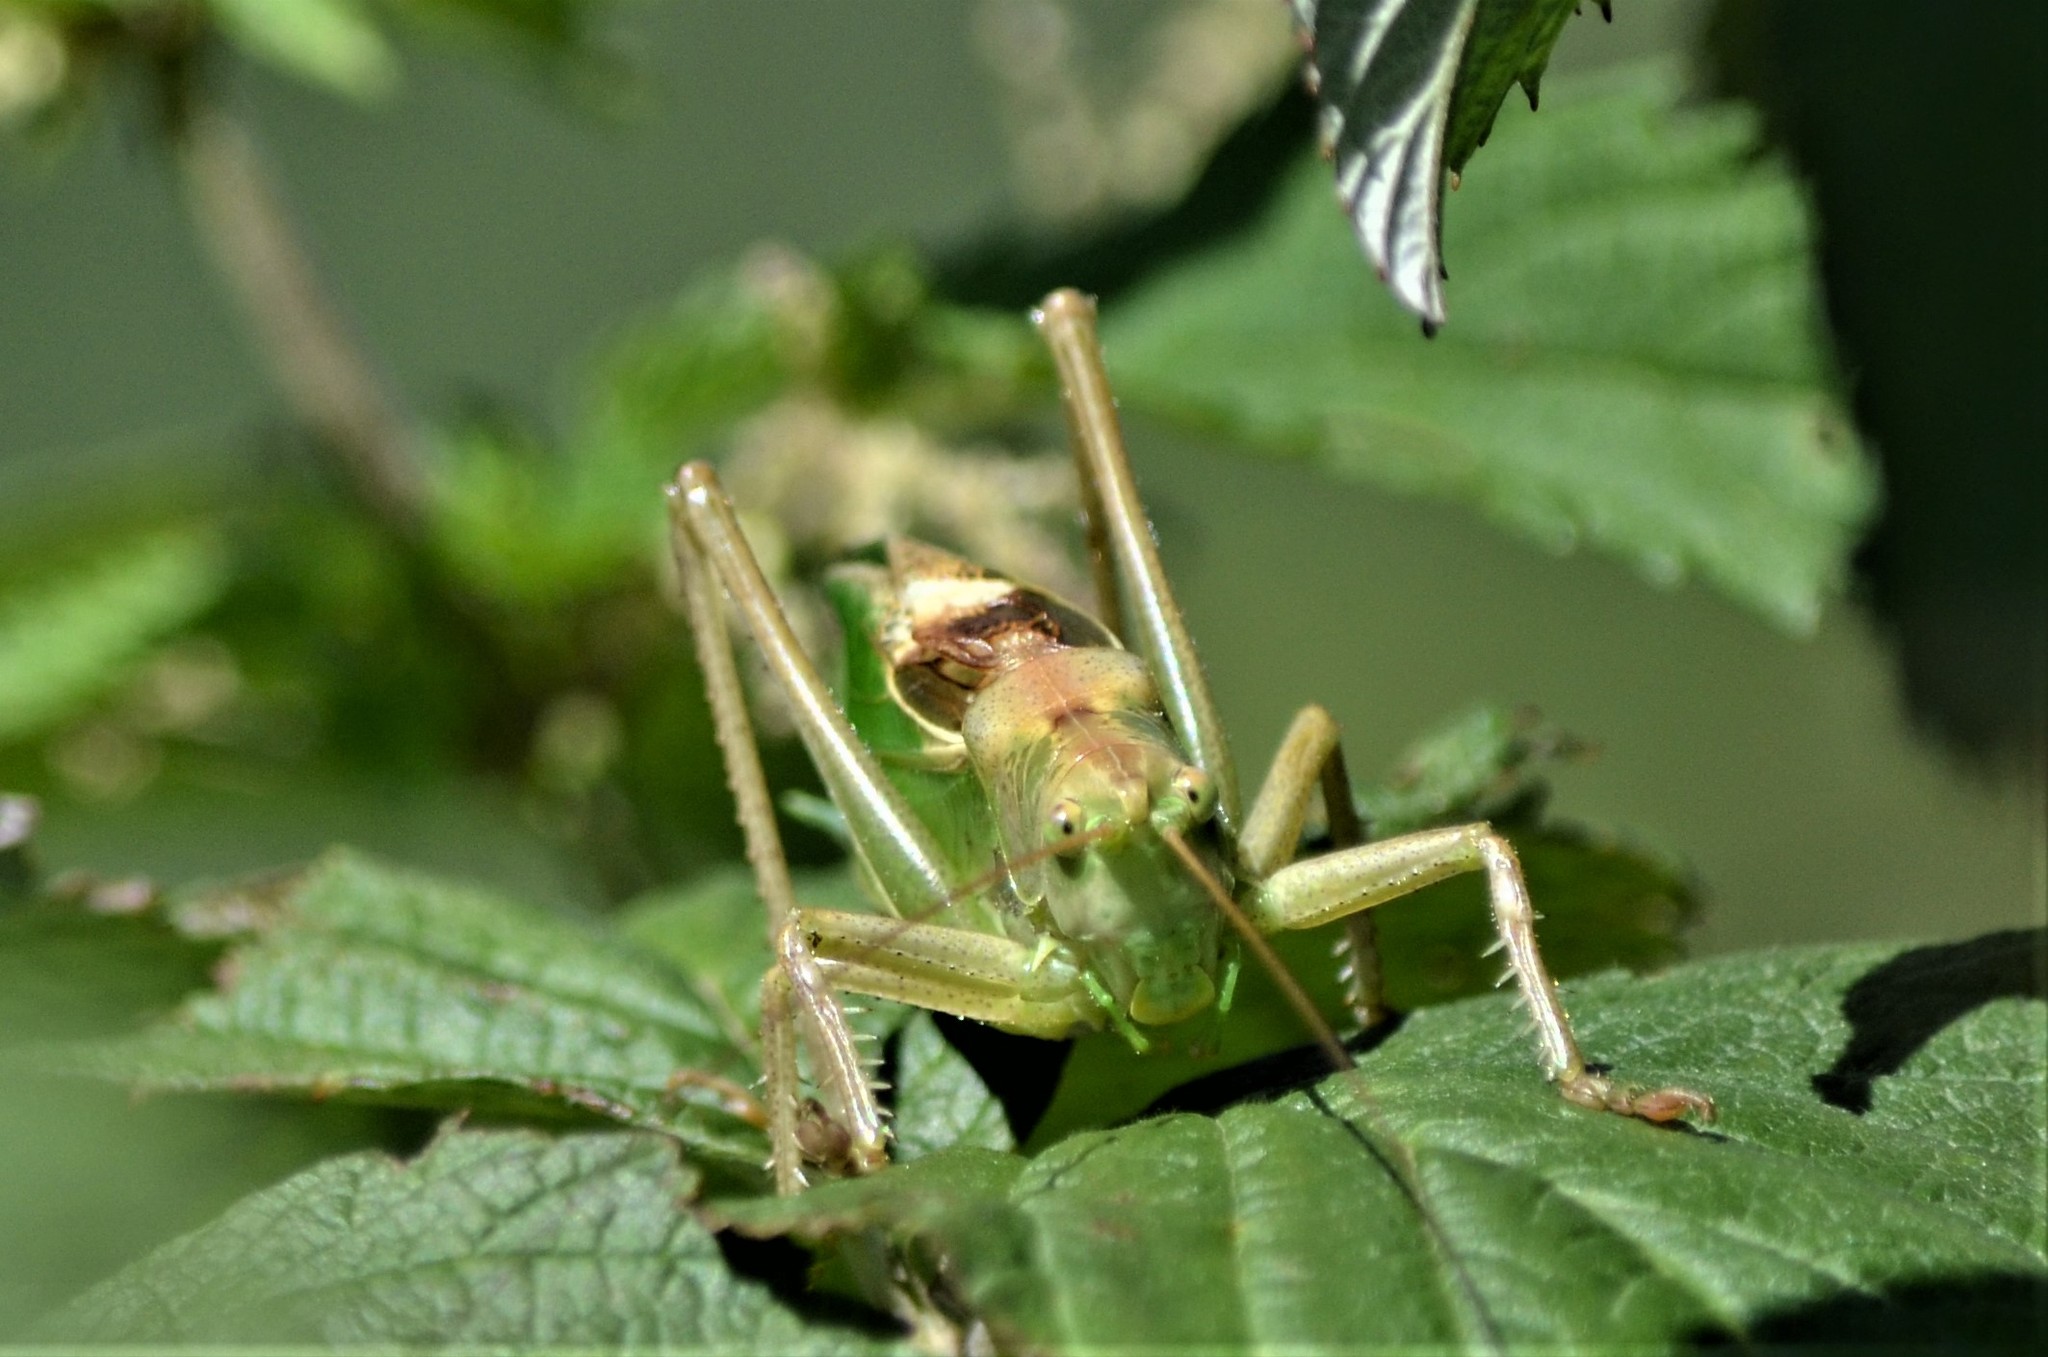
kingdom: Animalia
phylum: Arthropoda
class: Insecta
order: Orthoptera
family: Tettigoniidae
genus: Tettigonia
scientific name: Tettigonia cantans
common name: Upland green bush-cricket
